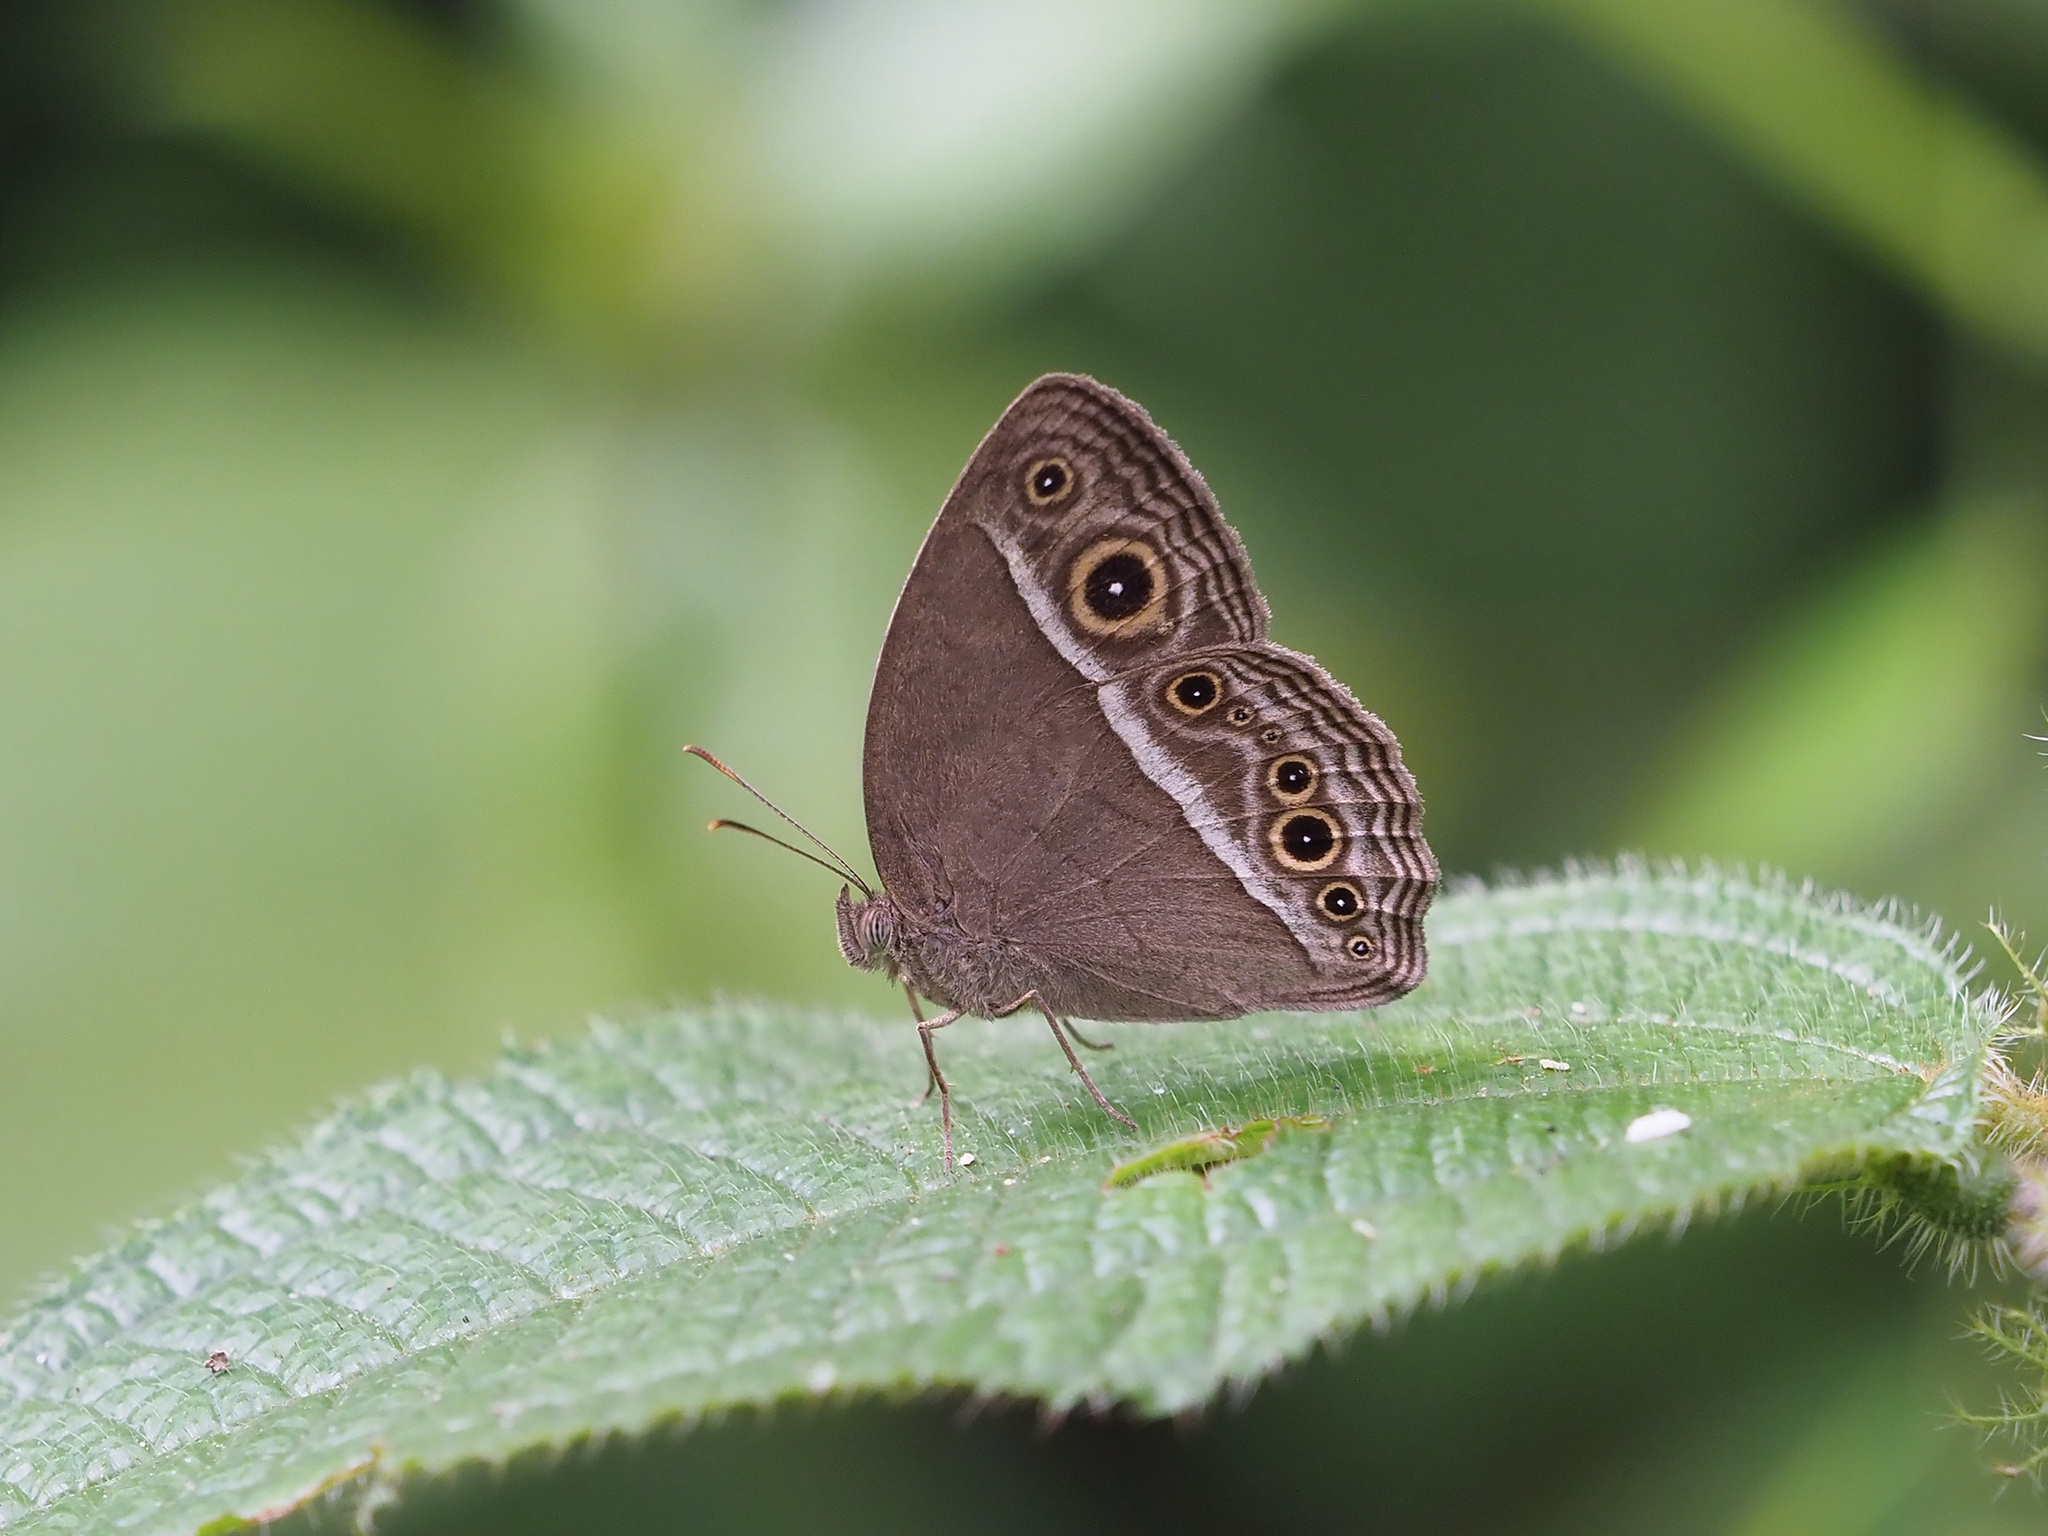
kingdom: Animalia
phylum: Arthropoda
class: Insecta
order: Lepidoptera
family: Nymphalidae
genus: Mycalesis
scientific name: Mycalesis visala
